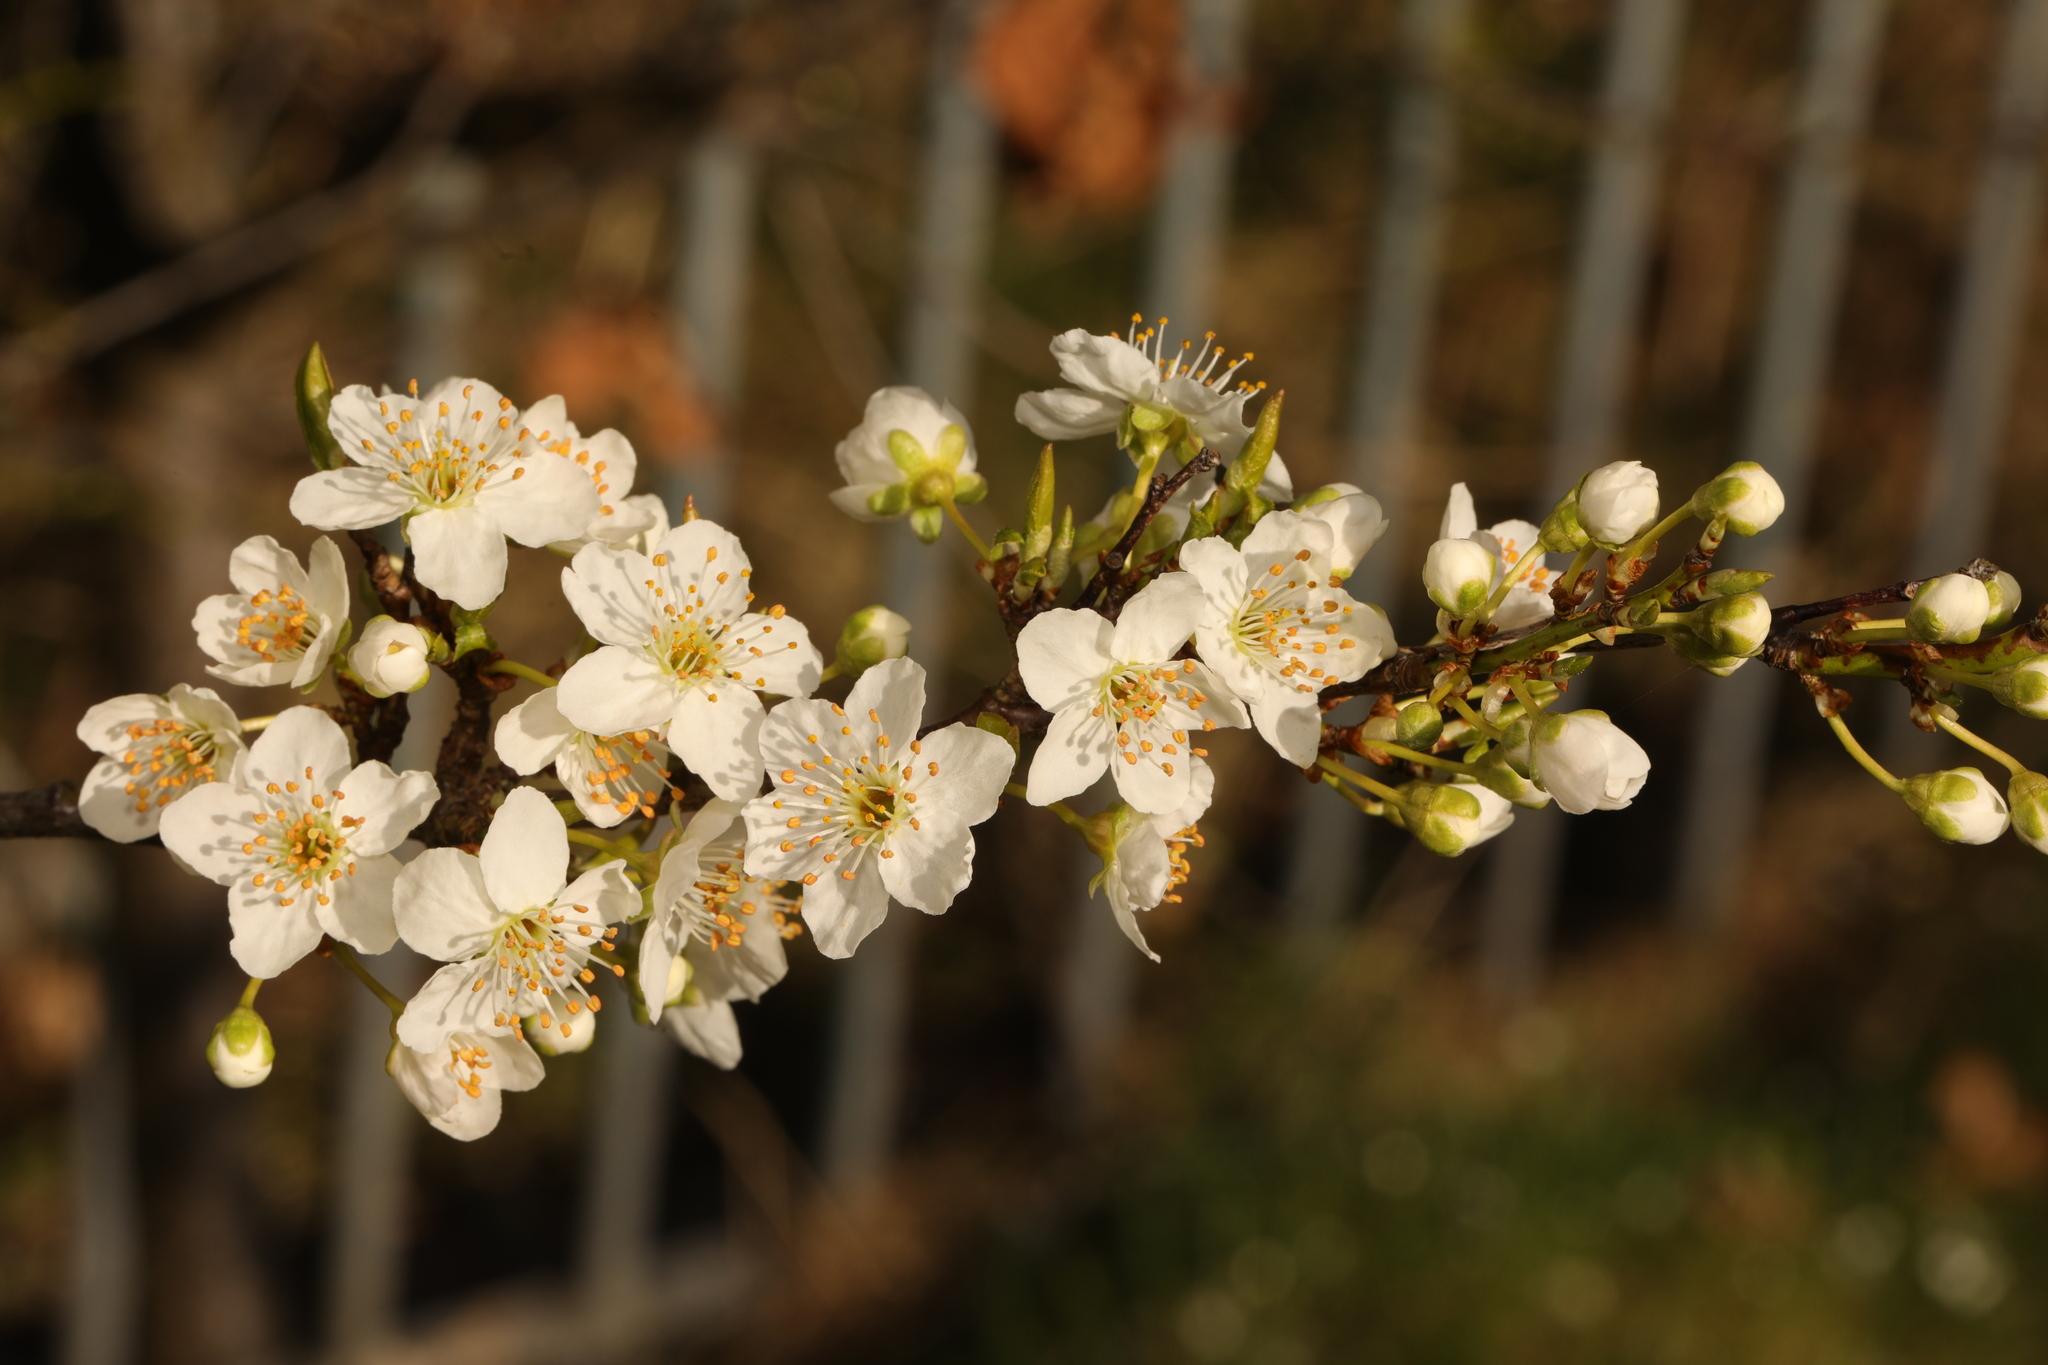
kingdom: Plantae
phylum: Tracheophyta
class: Magnoliopsida
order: Rosales
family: Rosaceae
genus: Prunus
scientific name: Prunus cerasifera
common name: Cherry plum
